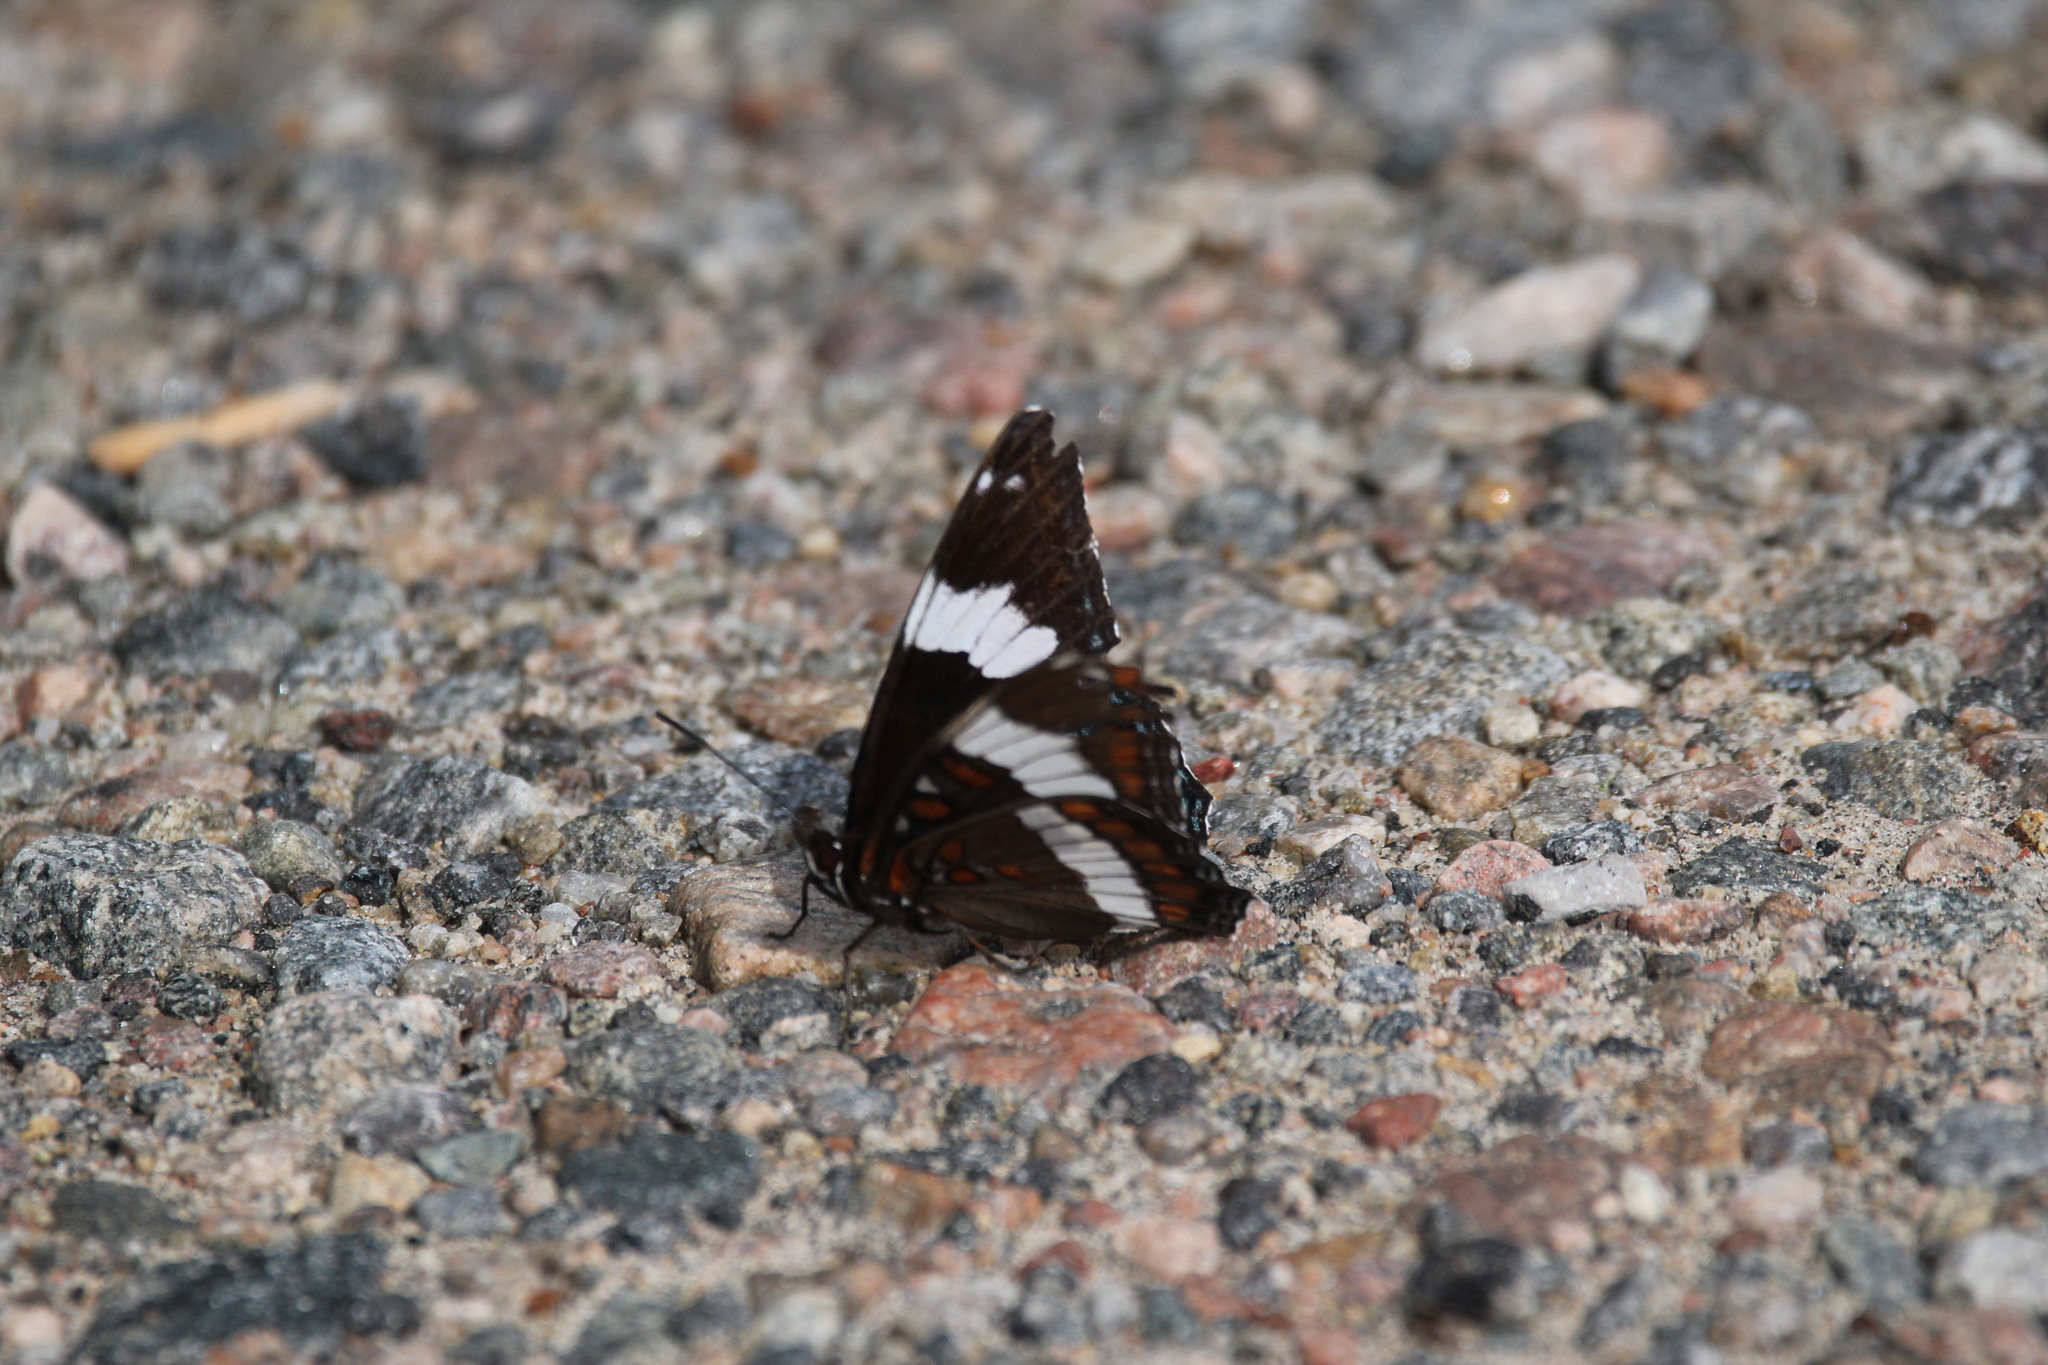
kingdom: Animalia
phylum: Arthropoda
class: Insecta
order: Lepidoptera
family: Nymphalidae
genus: Limenitis
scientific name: Limenitis arthemis
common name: Red-spotted admiral
